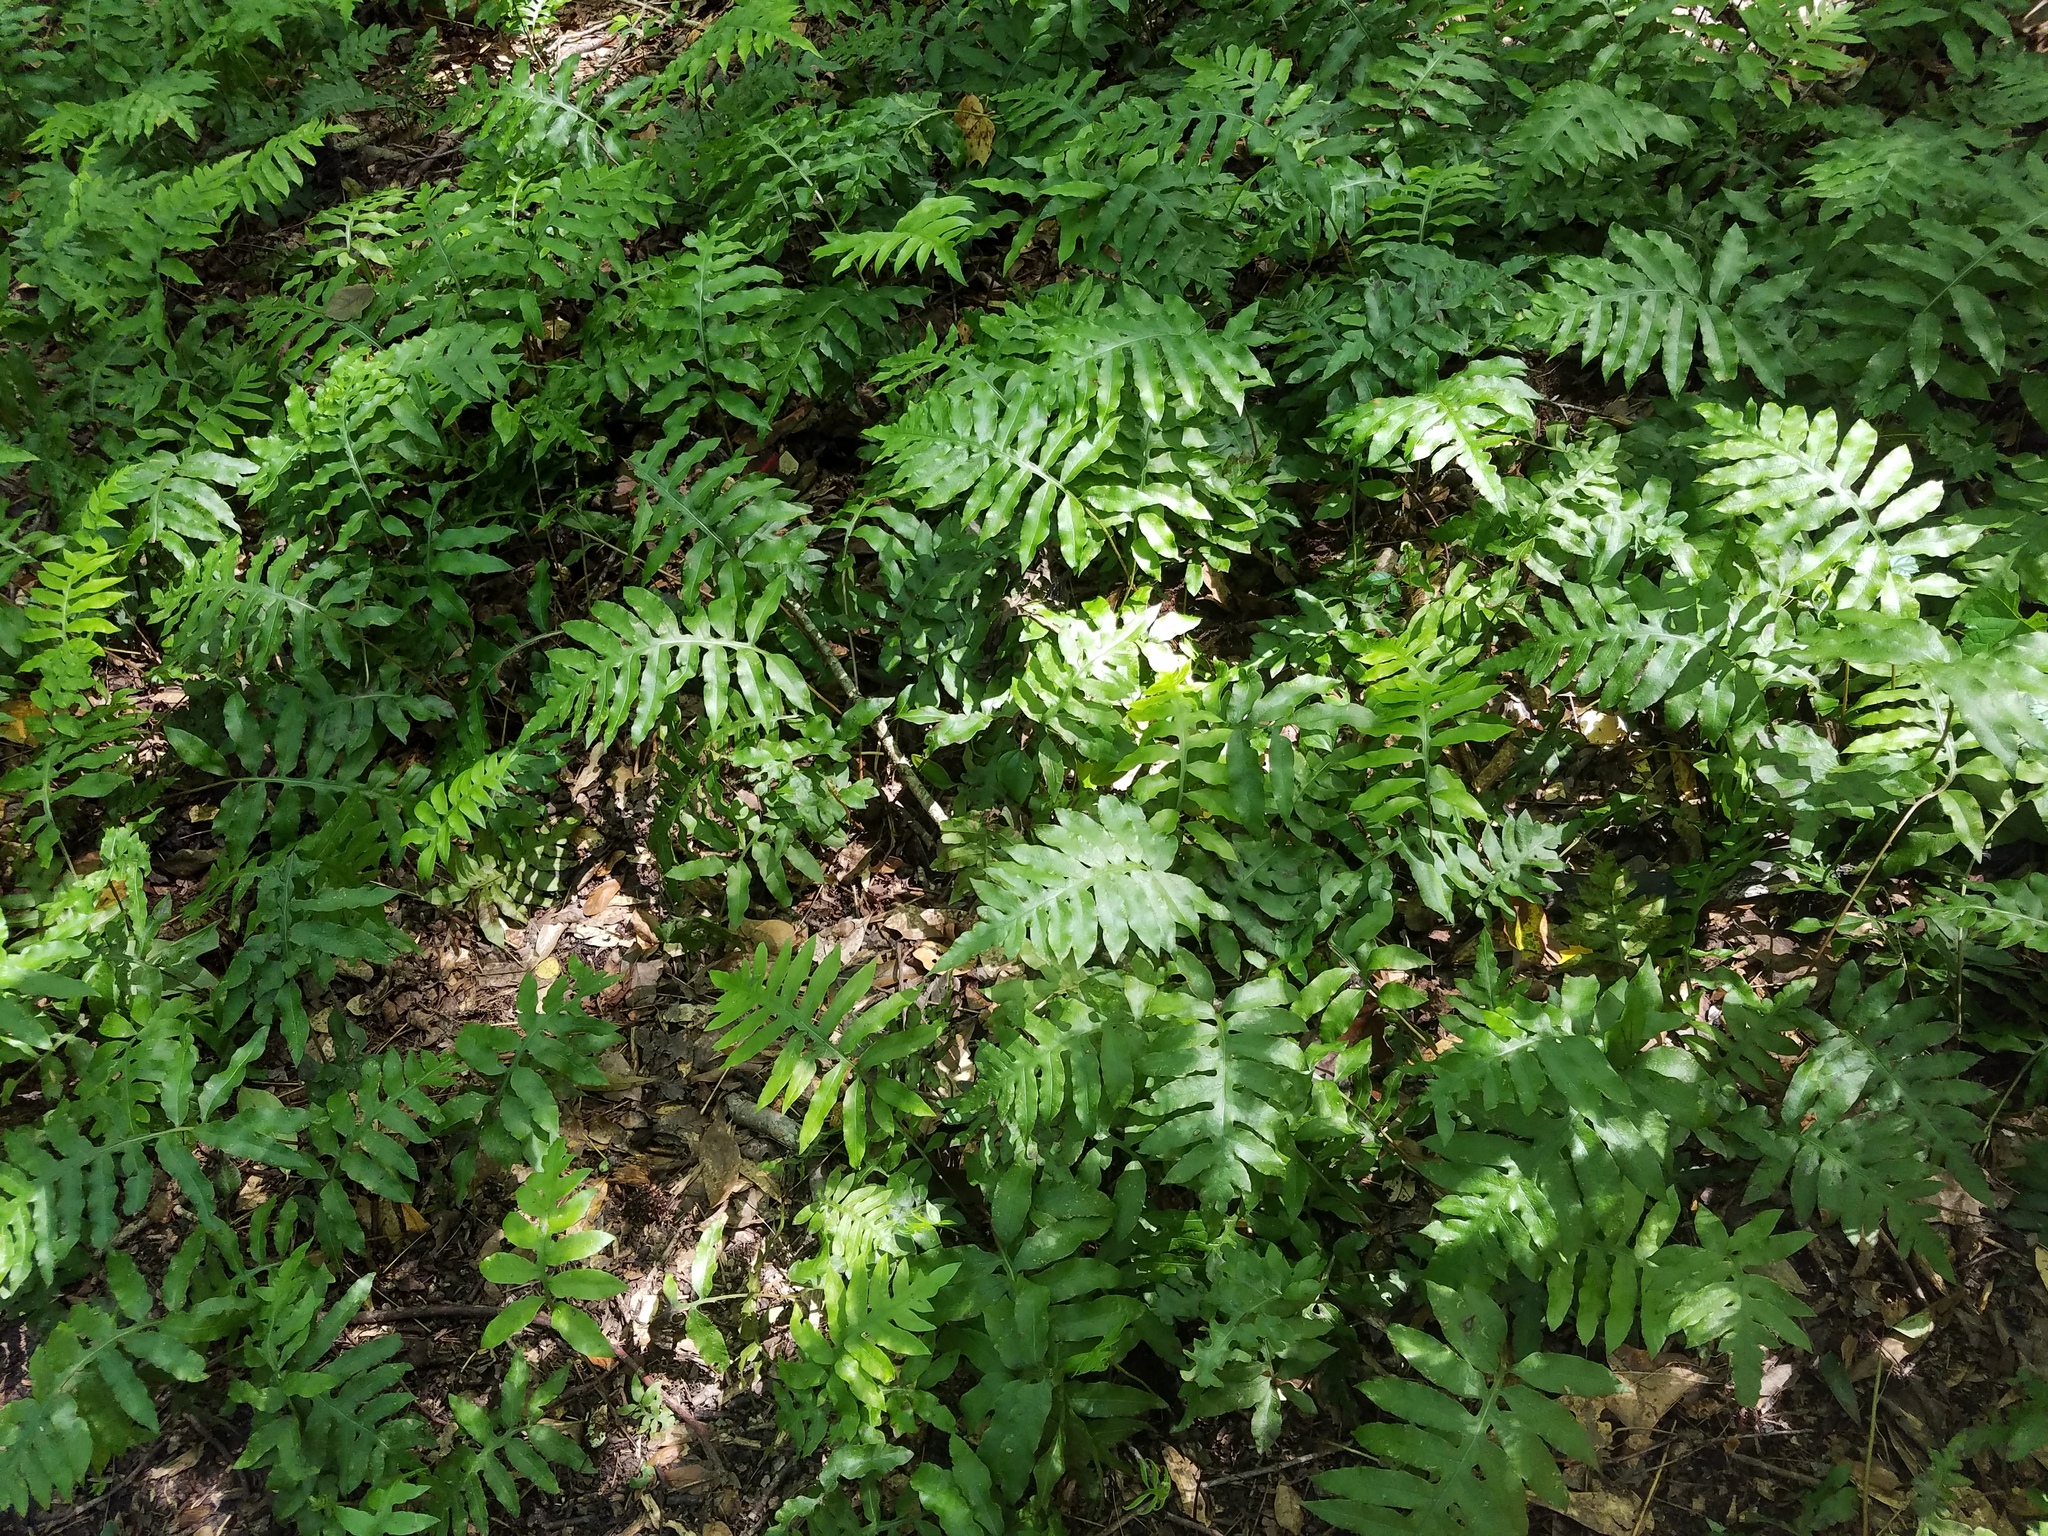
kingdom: Plantae
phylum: Tracheophyta
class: Polypodiopsida
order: Polypodiales
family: Blechnaceae
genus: Lorinseria
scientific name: Lorinseria areolata
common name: Dwarf chain fern
